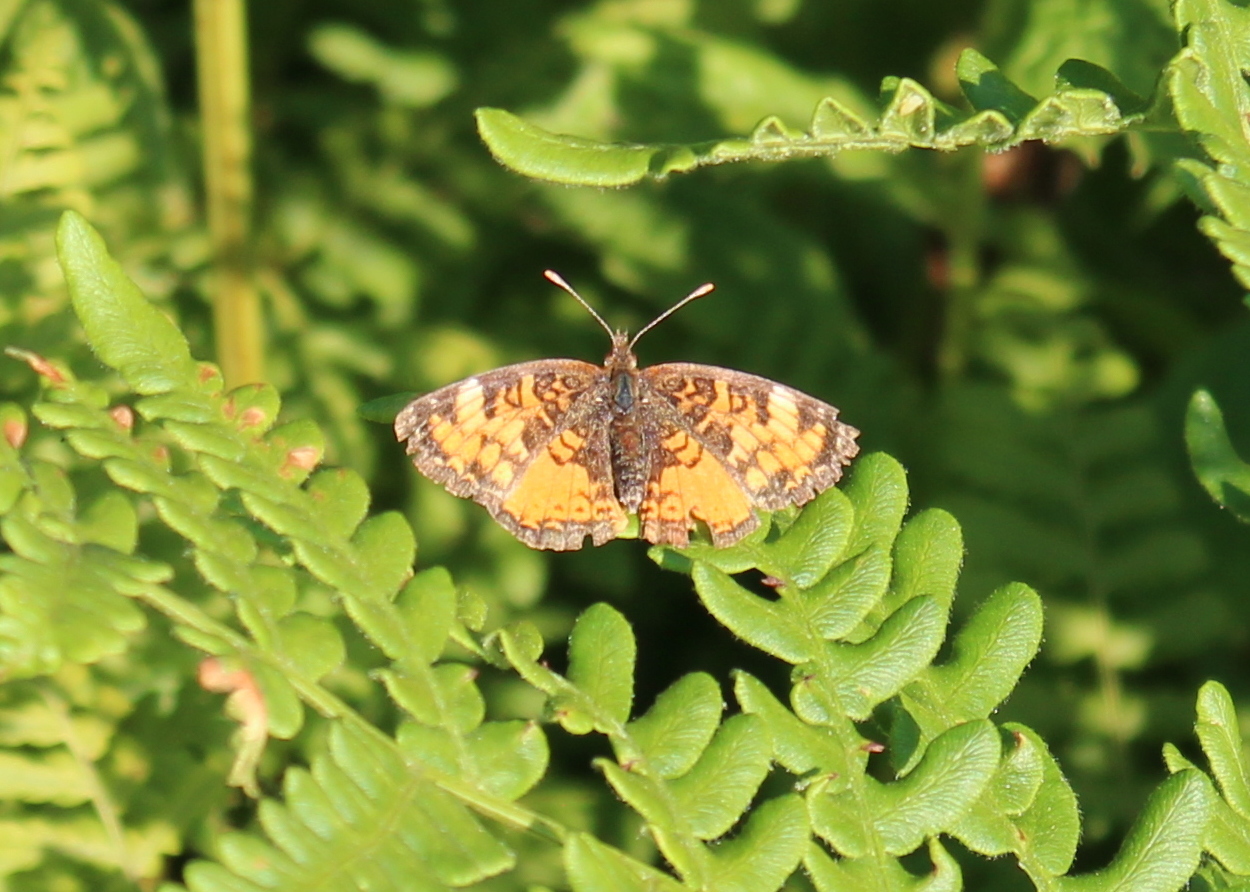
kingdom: Animalia
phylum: Arthropoda
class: Insecta
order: Lepidoptera
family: Nymphalidae
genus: Phyciodes
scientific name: Phyciodes tharos
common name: Pearl crescent
